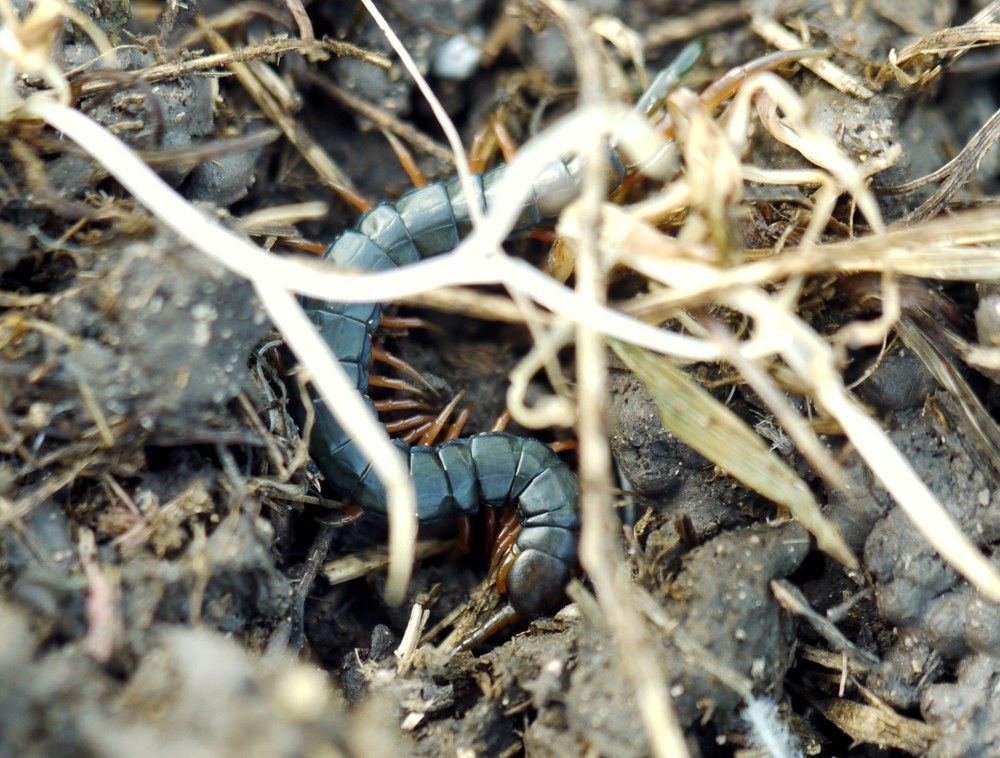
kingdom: Animalia
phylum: Arthropoda
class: Chilopoda
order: Scolopendromorpha
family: Scolopendridae
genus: Scolopendra
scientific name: Scolopendra cingulata
